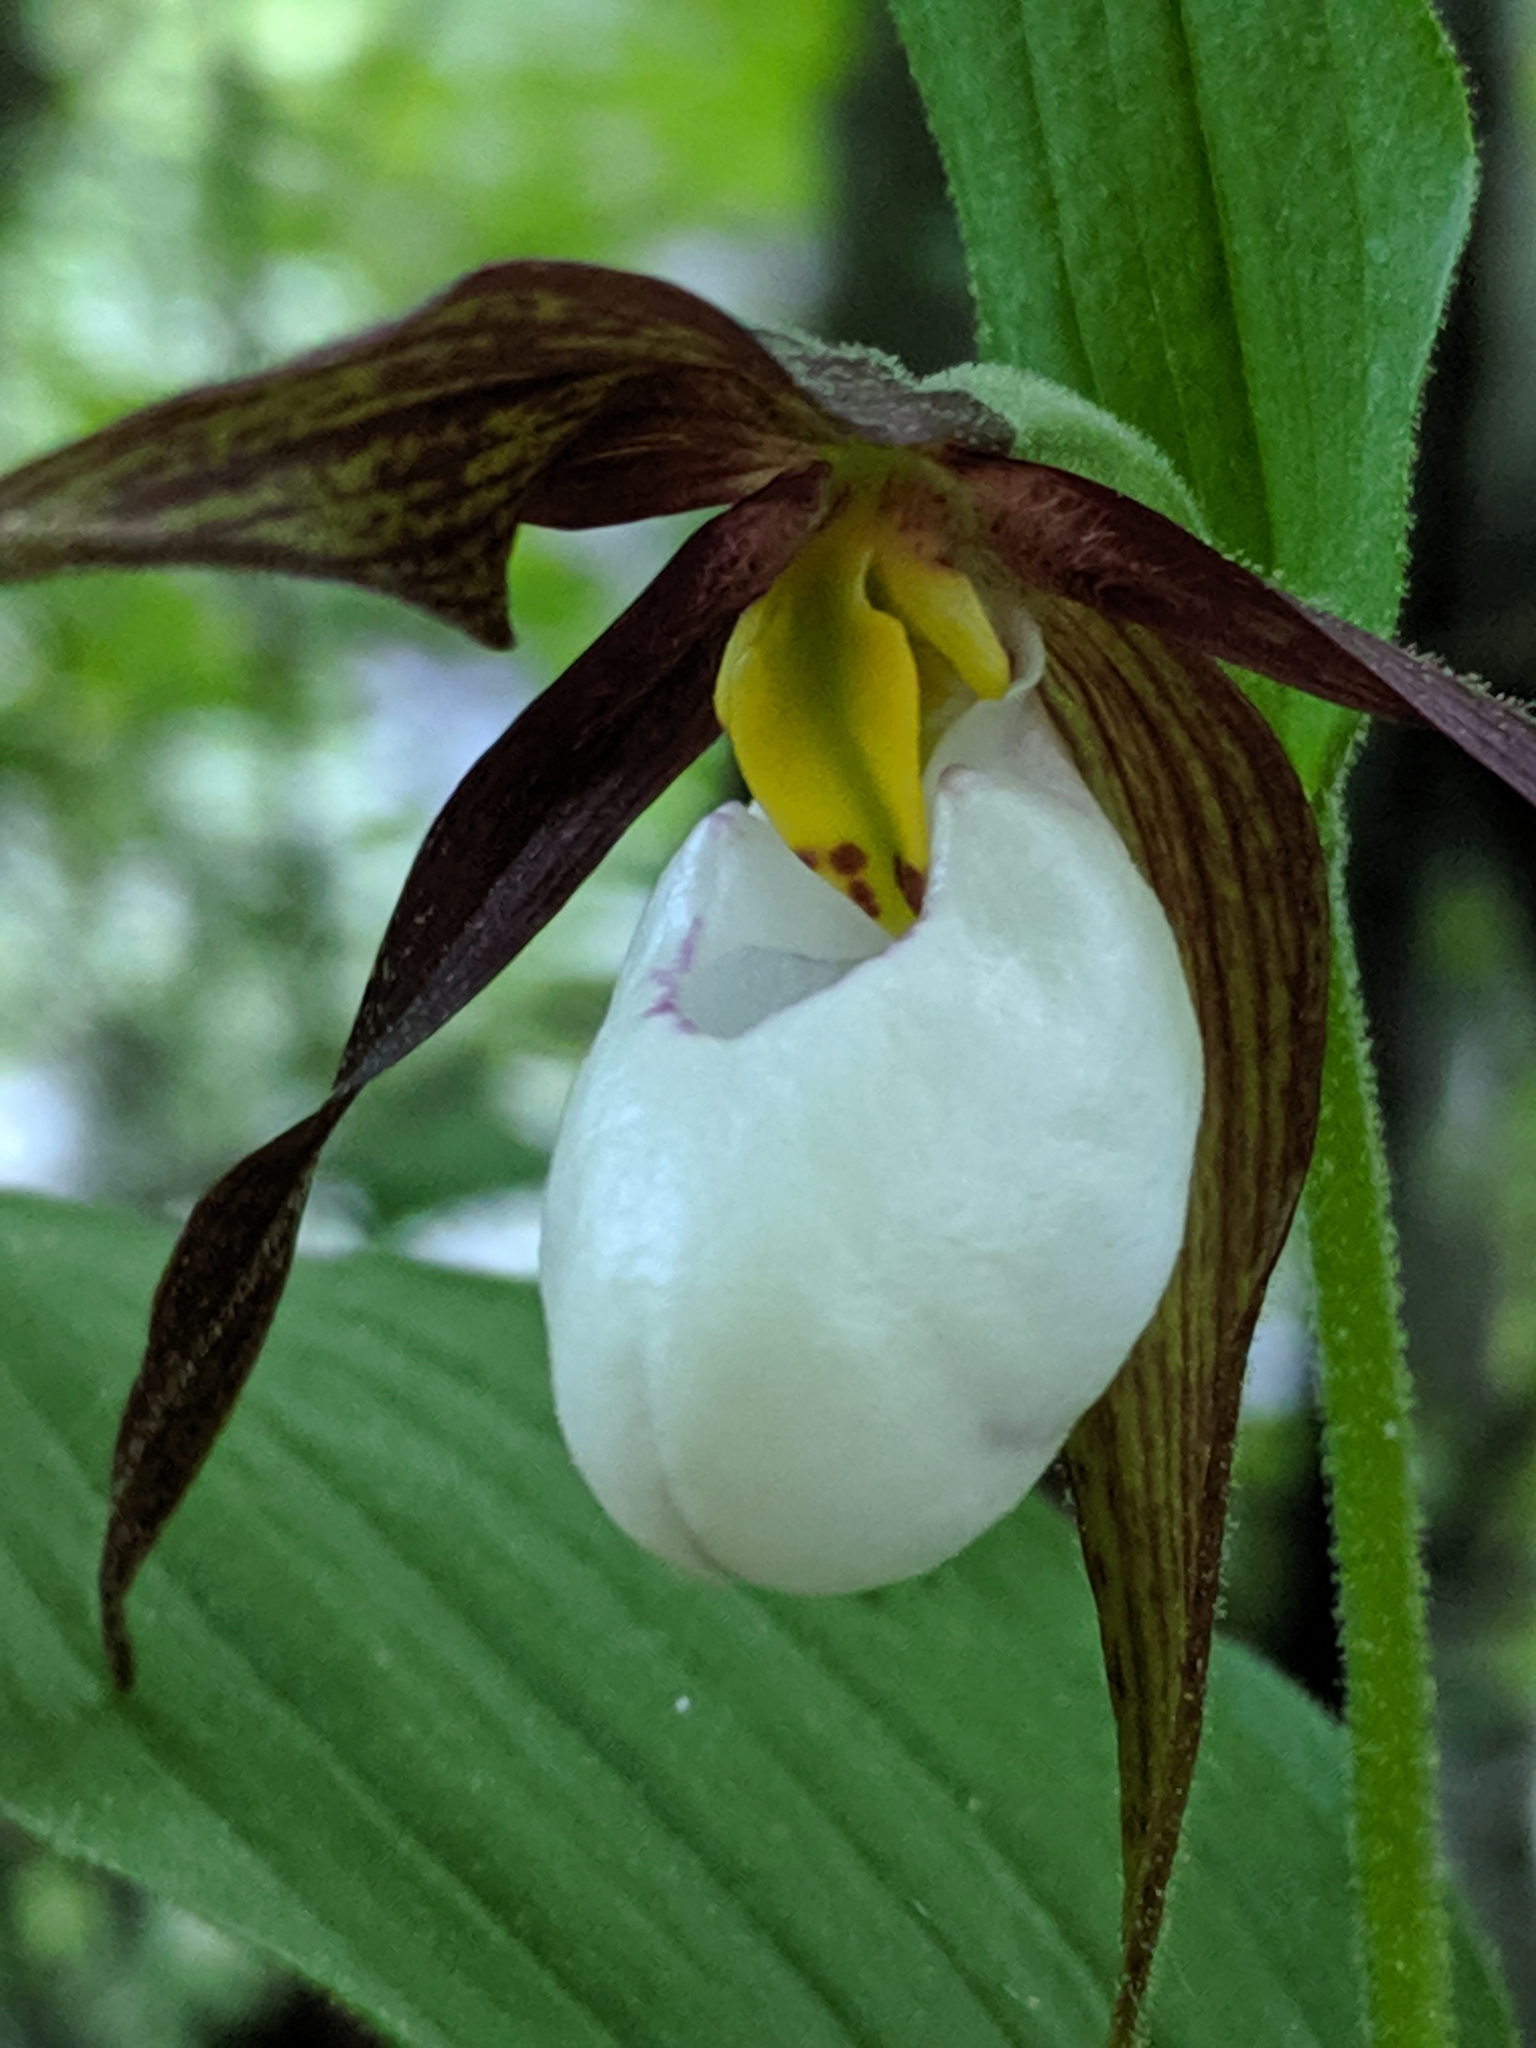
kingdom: Plantae
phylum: Tracheophyta
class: Liliopsida
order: Asparagales
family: Orchidaceae
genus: Cypripedium
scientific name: Cypripedium montanum
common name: Mountain lady's-slipper
